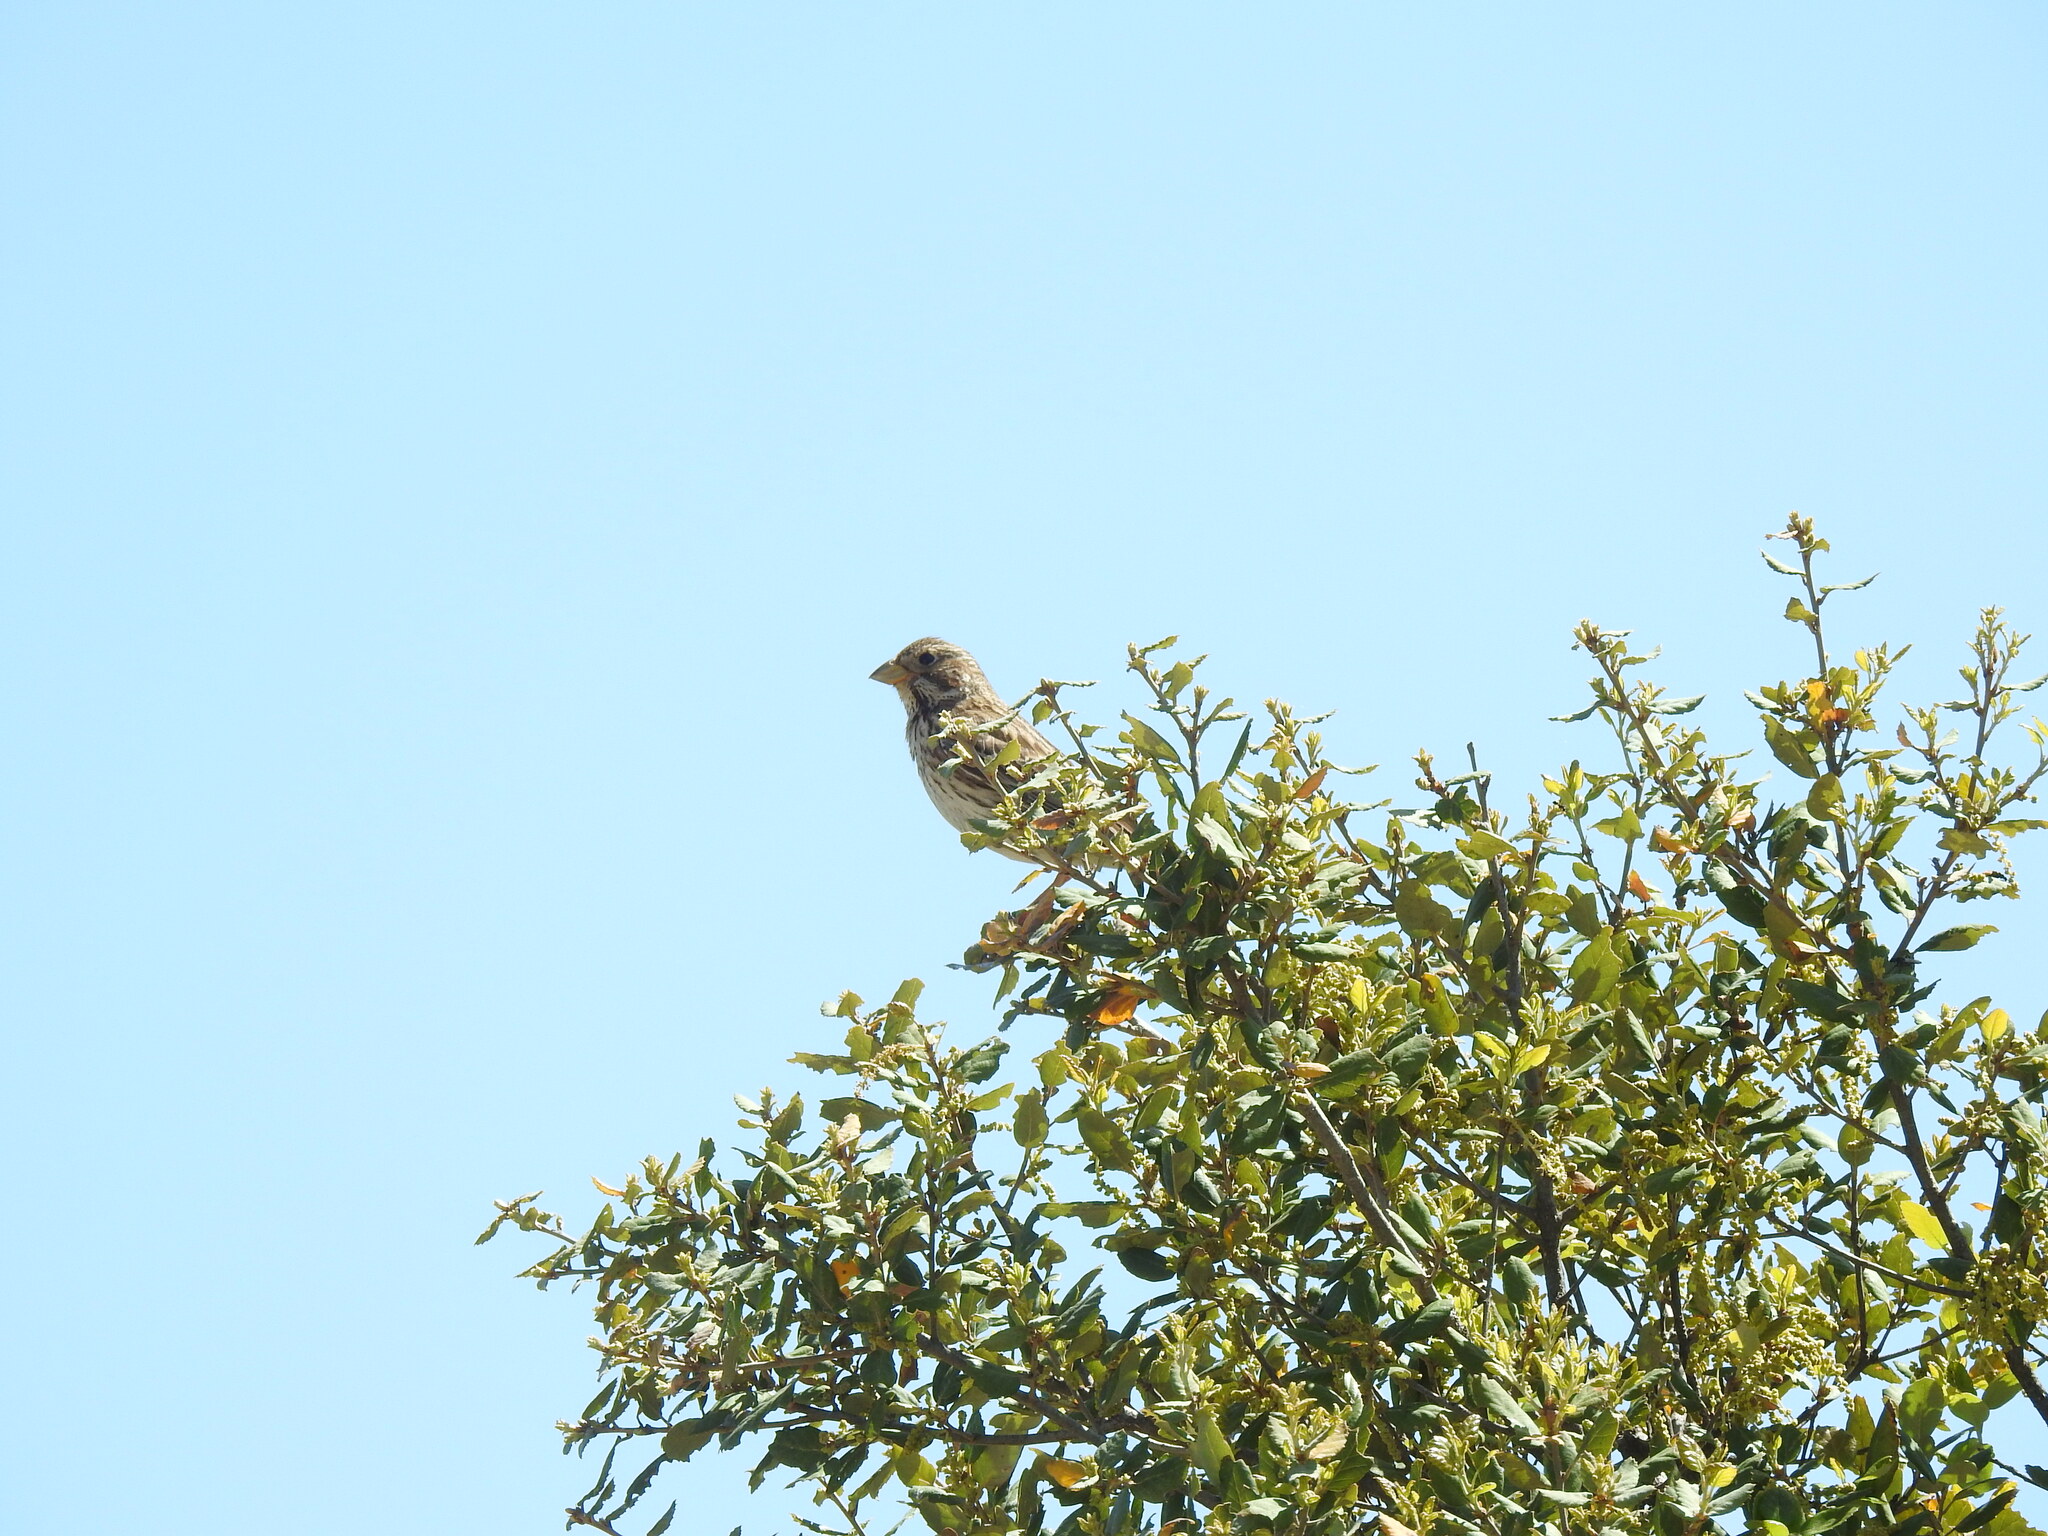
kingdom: Animalia
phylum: Chordata
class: Aves
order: Passeriformes
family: Emberizidae
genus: Emberiza
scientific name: Emberiza calandra
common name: Corn bunting
